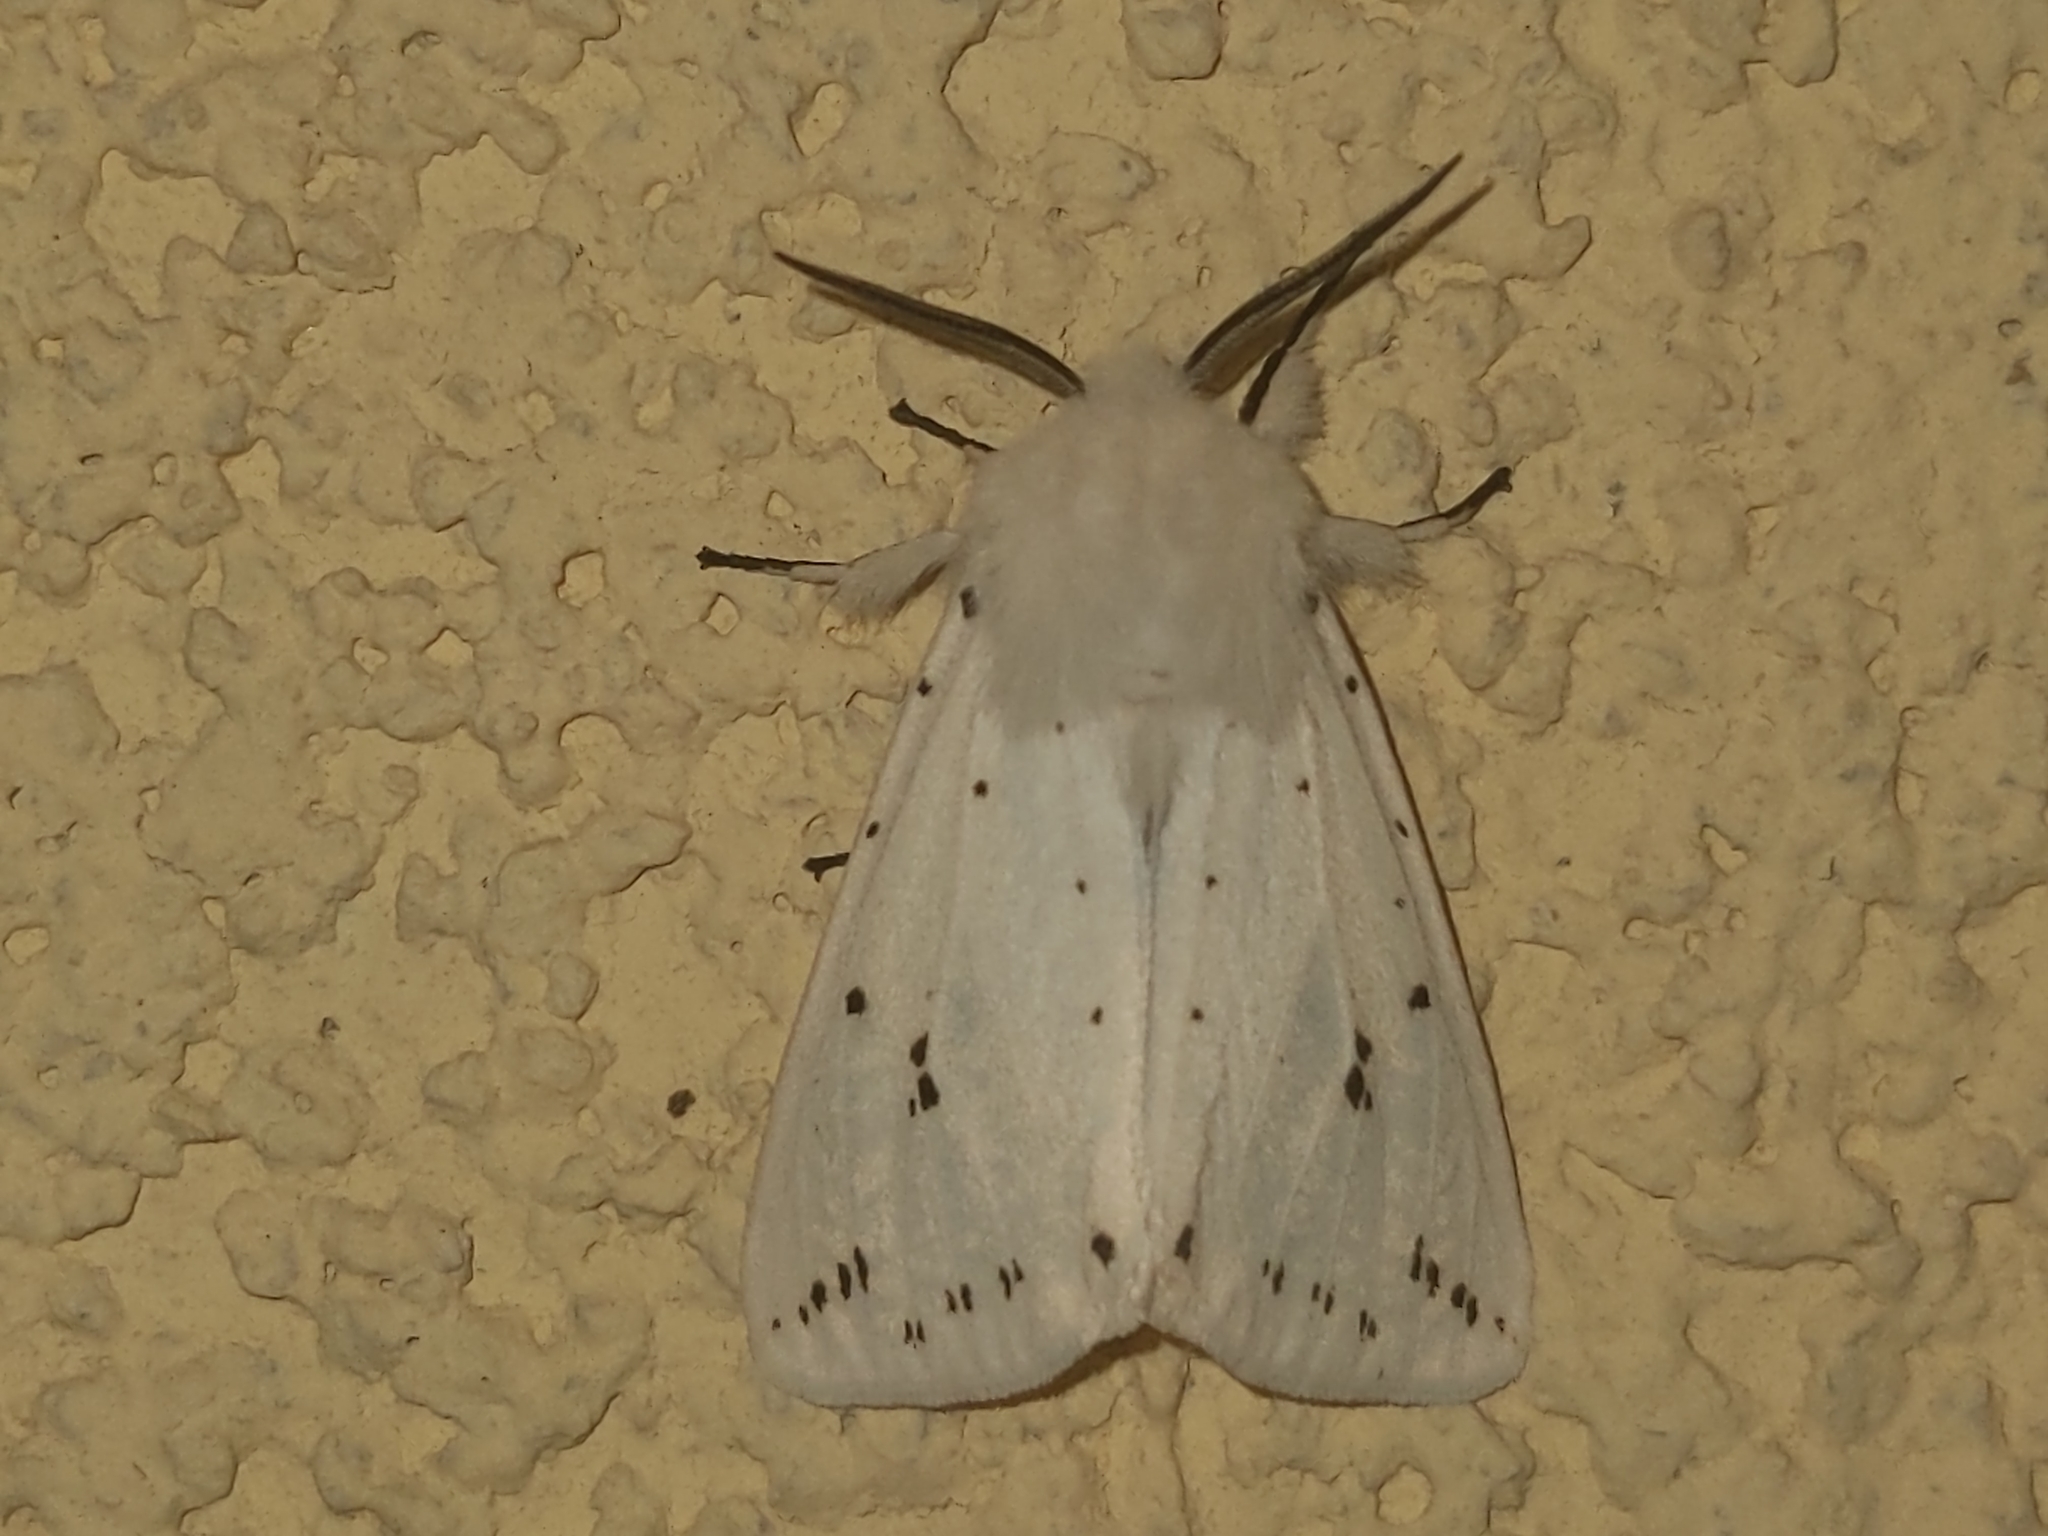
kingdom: Animalia
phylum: Arthropoda
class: Insecta
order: Lepidoptera
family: Erebidae
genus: Spilosoma
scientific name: Spilosoma lubricipeda
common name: White ermine
